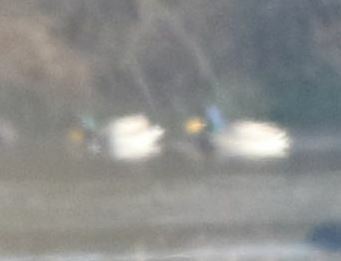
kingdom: Animalia
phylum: Chordata
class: Aves
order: Anseriformes
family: Anatidae
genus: Anas
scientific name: Anas platyrhynchos
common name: Mallard
